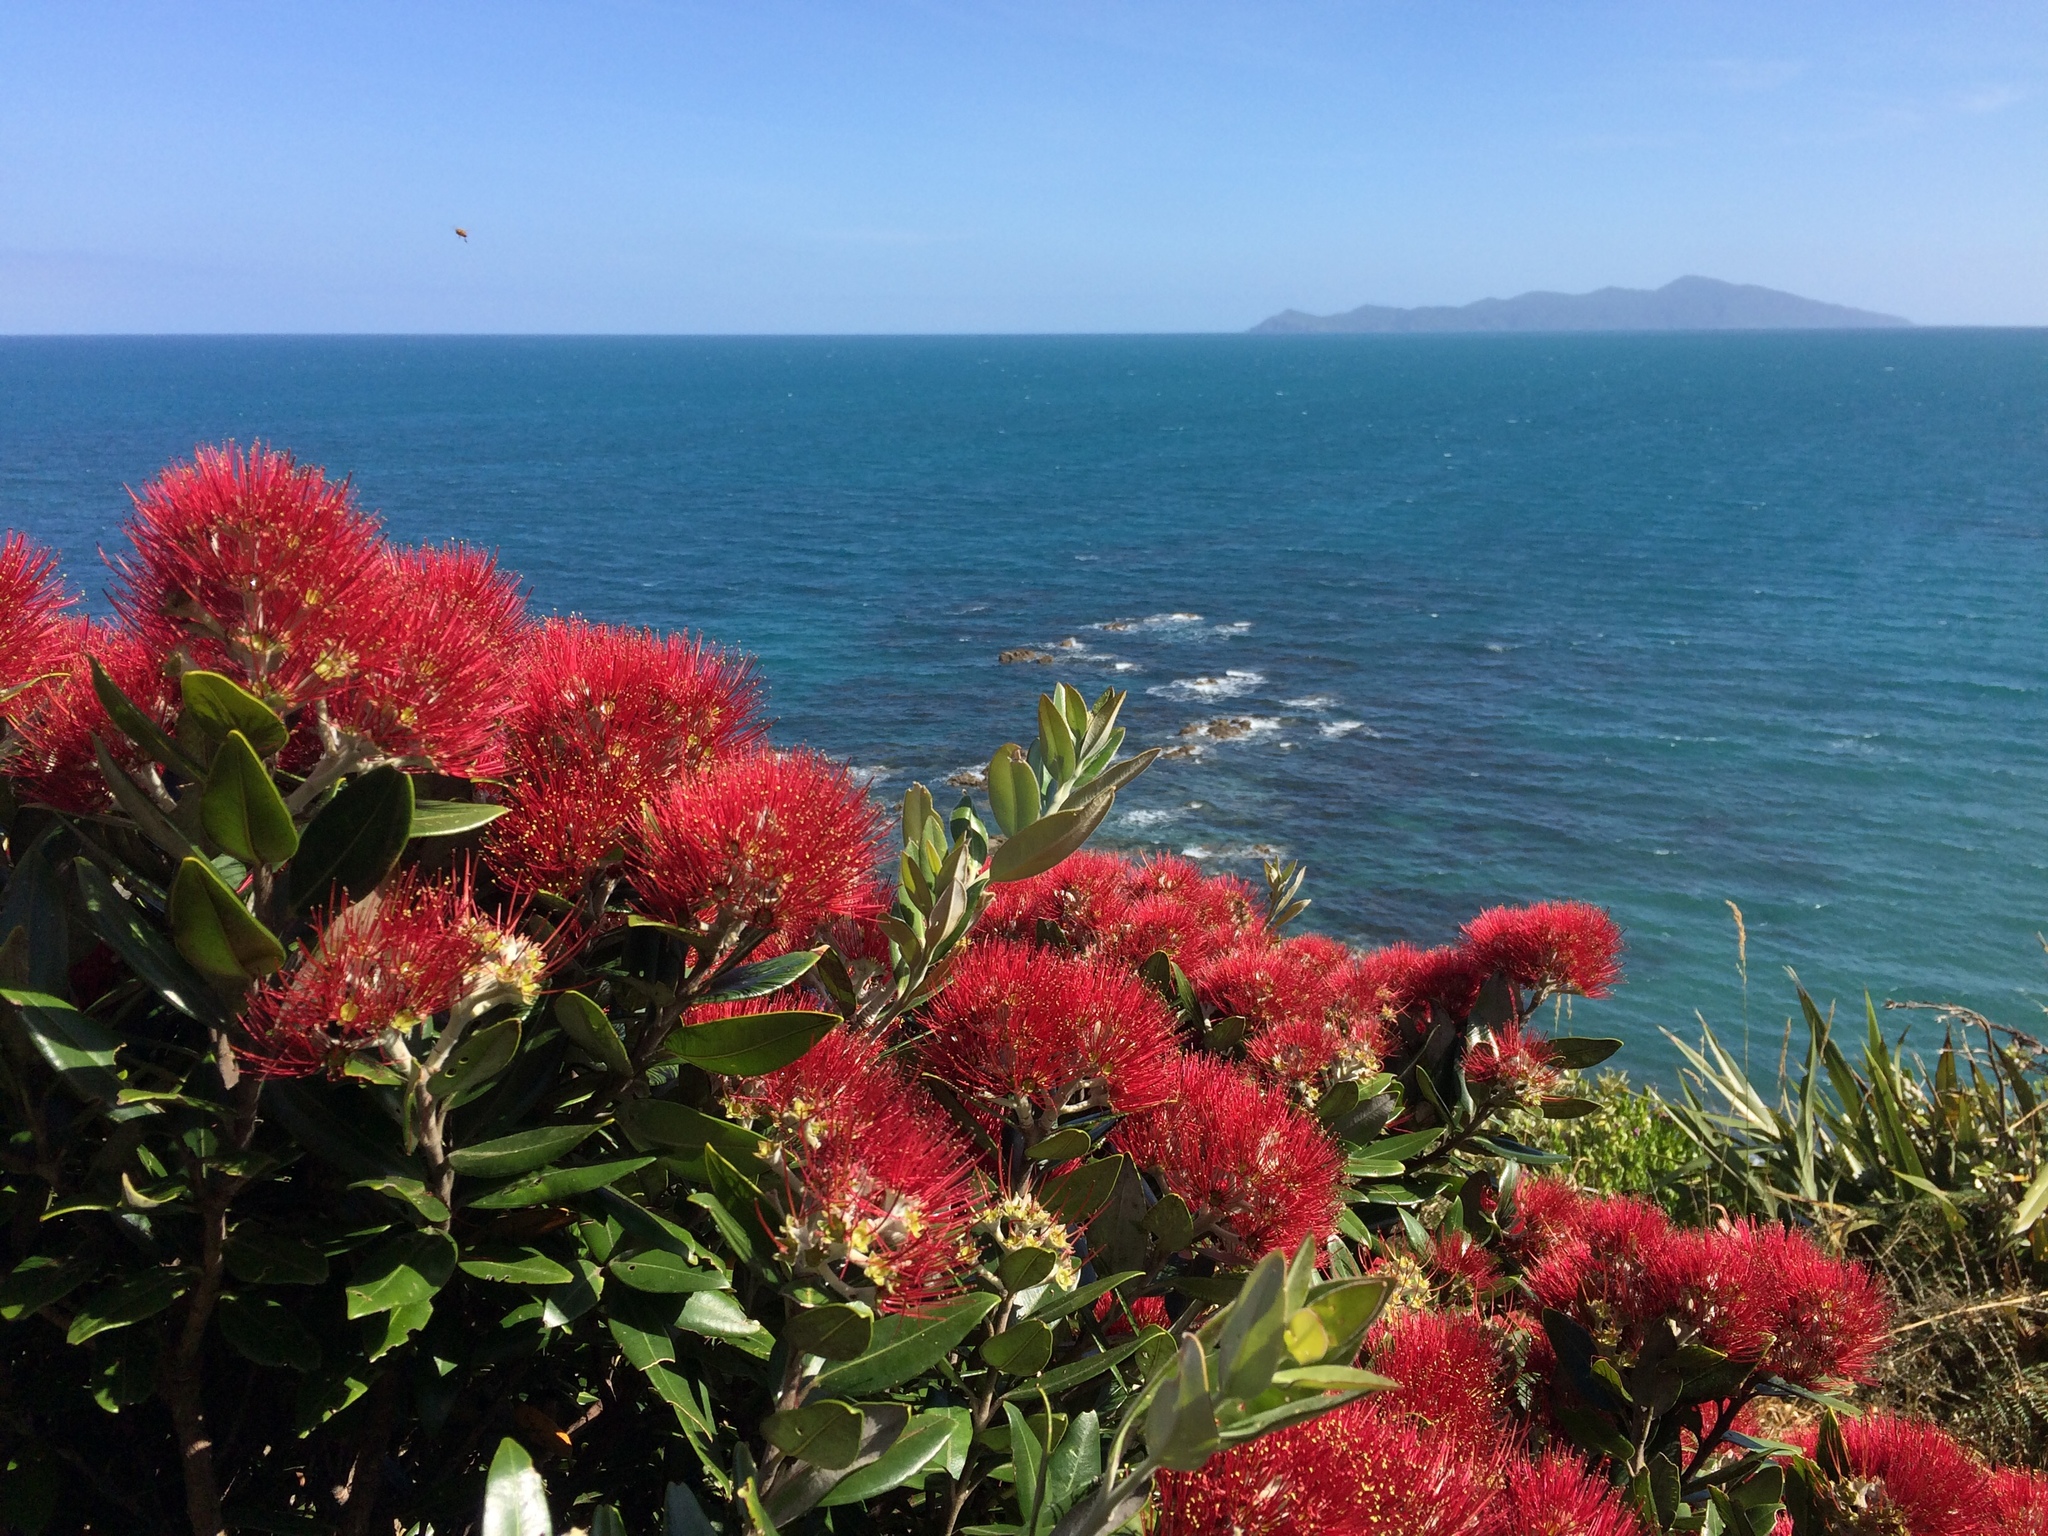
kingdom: Plantae
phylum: Tracheophyta
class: Magnoliopsida
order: Myrtales
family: Myrtaceae
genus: Metrosideros
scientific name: Metrosideros excelsa
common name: New zealand christmastree
